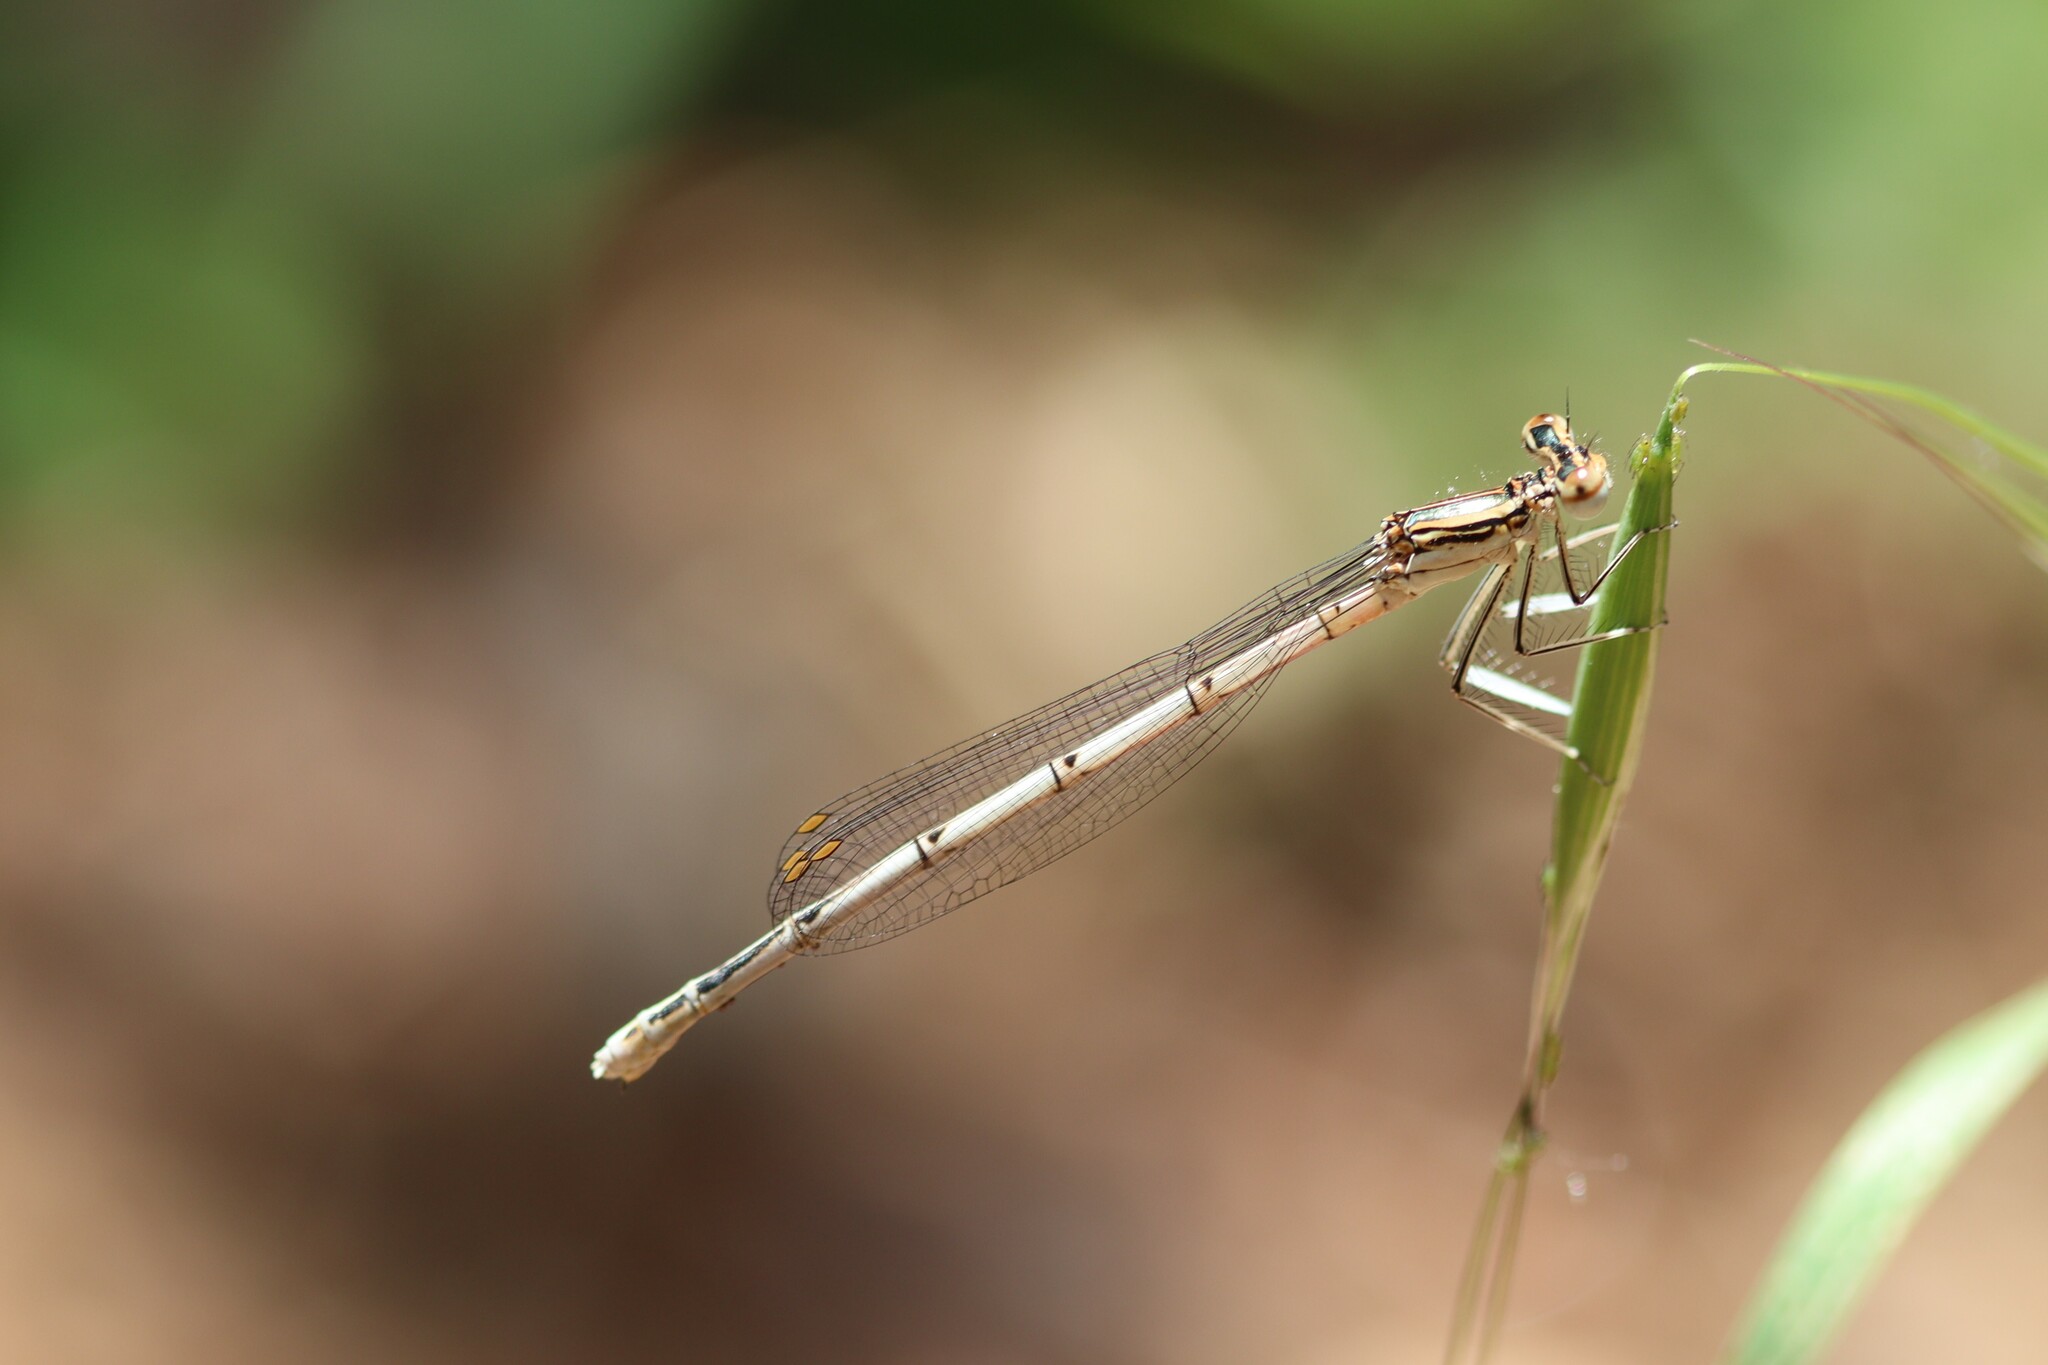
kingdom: Animalia
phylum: Arthropoda
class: Insecta
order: Odonata
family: Platycnemididae
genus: Platycnemis
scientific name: Platycnemis pennipes
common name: White-legged damselfly
